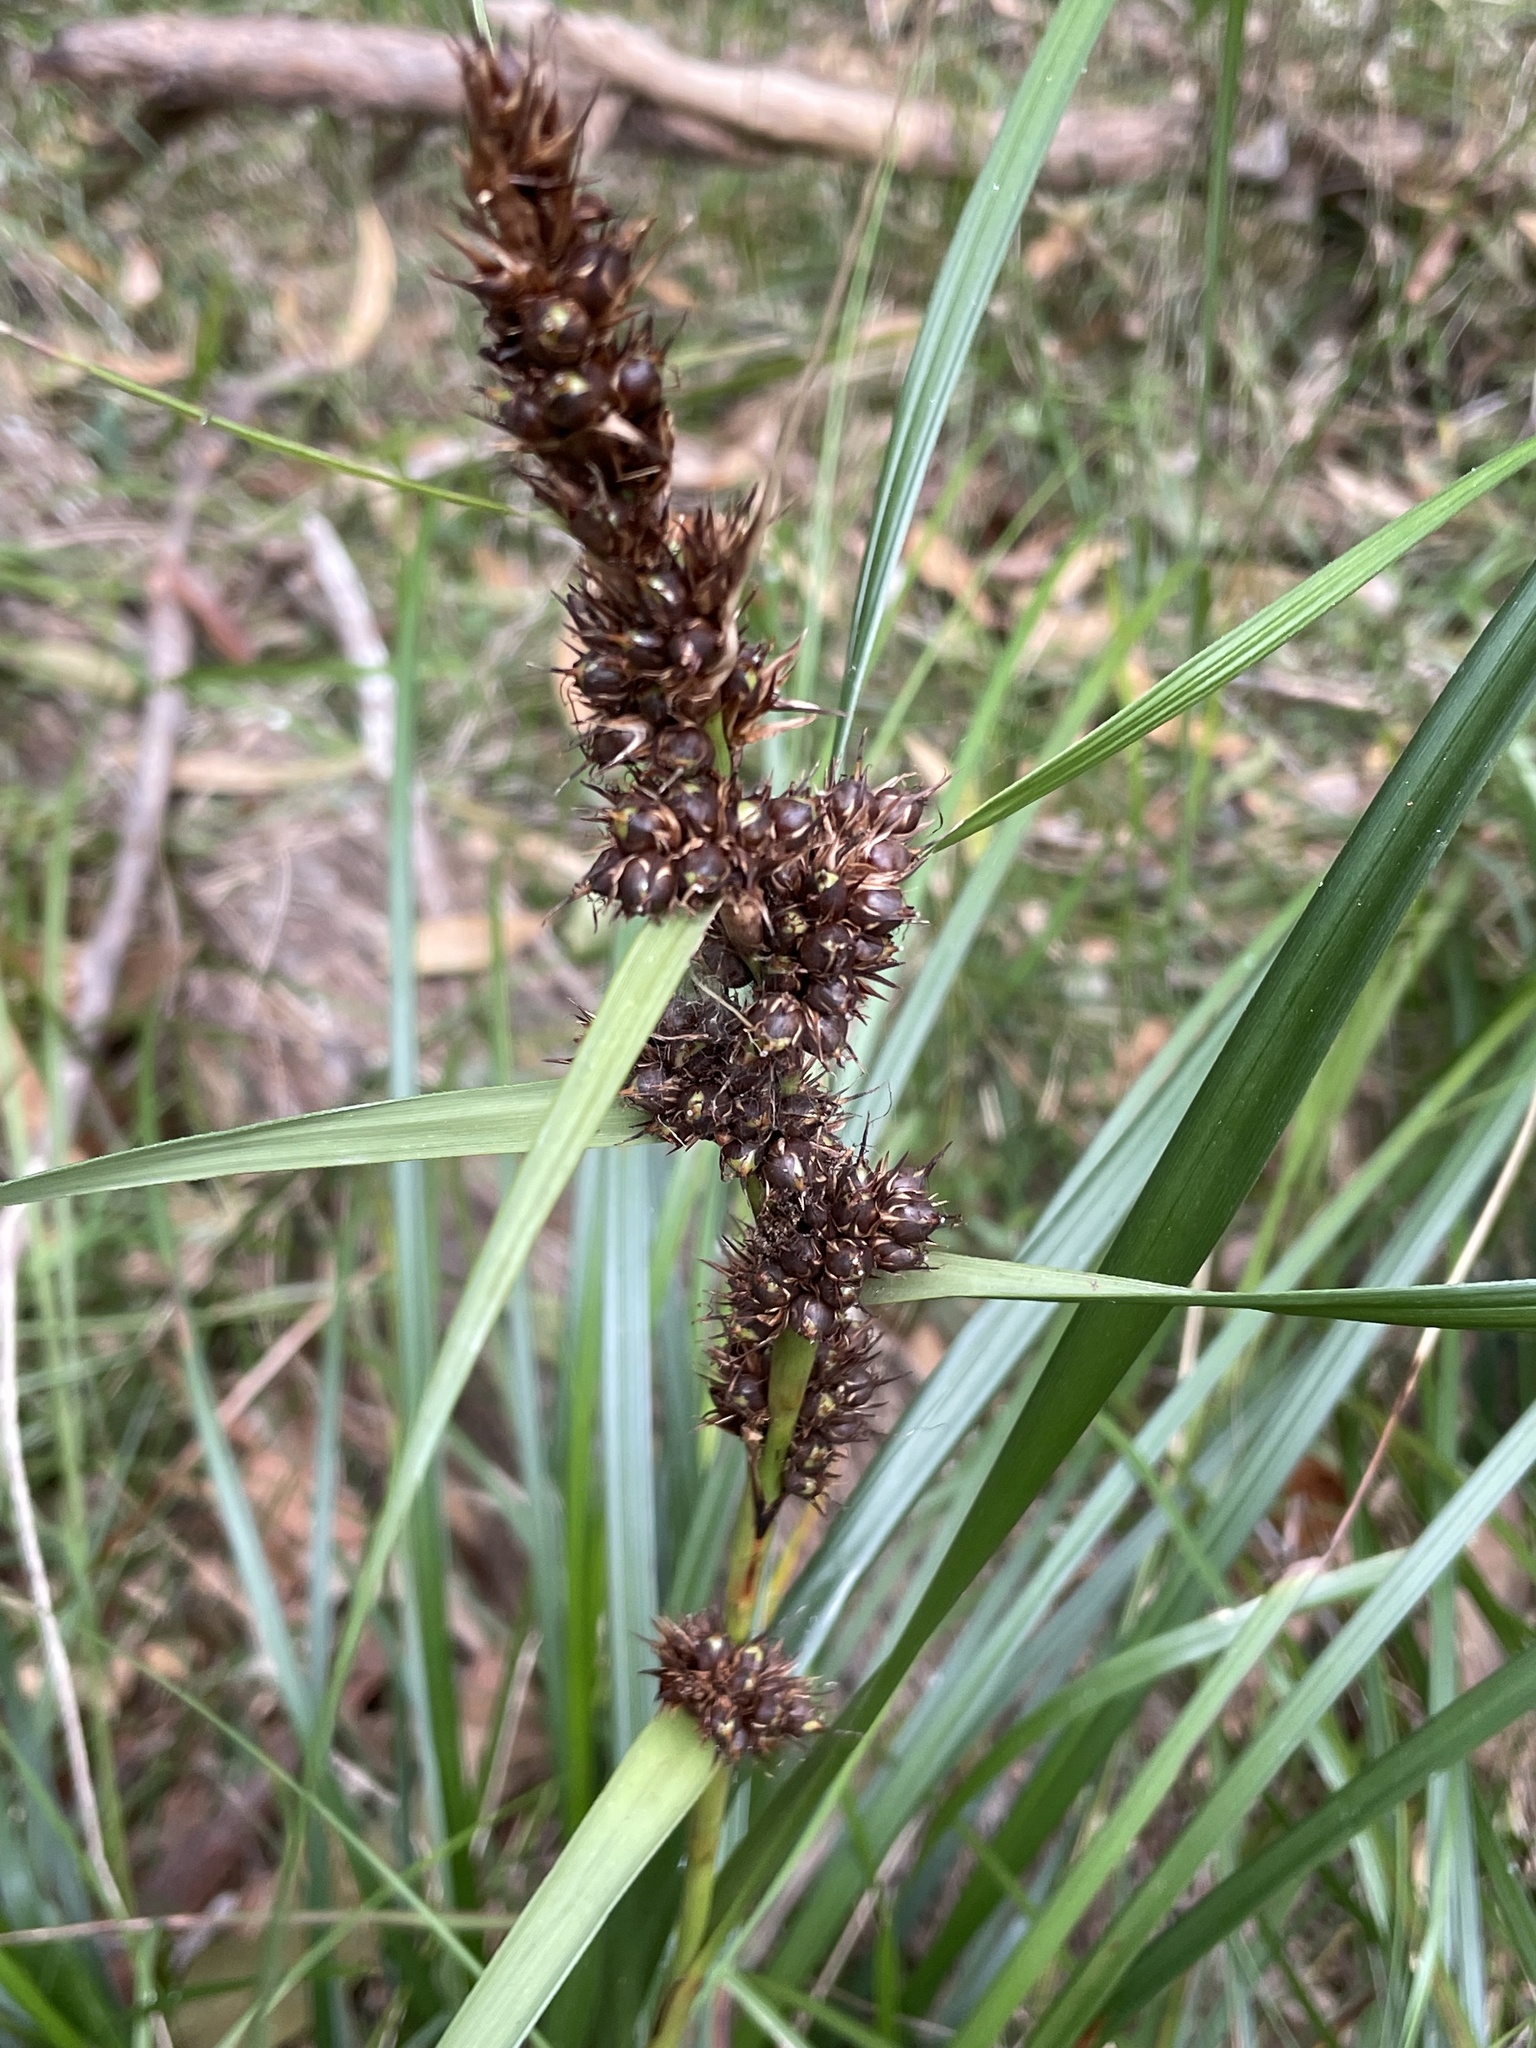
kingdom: Plantae
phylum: Tracheophyta
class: Liliopsida
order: Poales
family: Cyperaceae
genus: Gahnia
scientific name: Gahnia aspera
